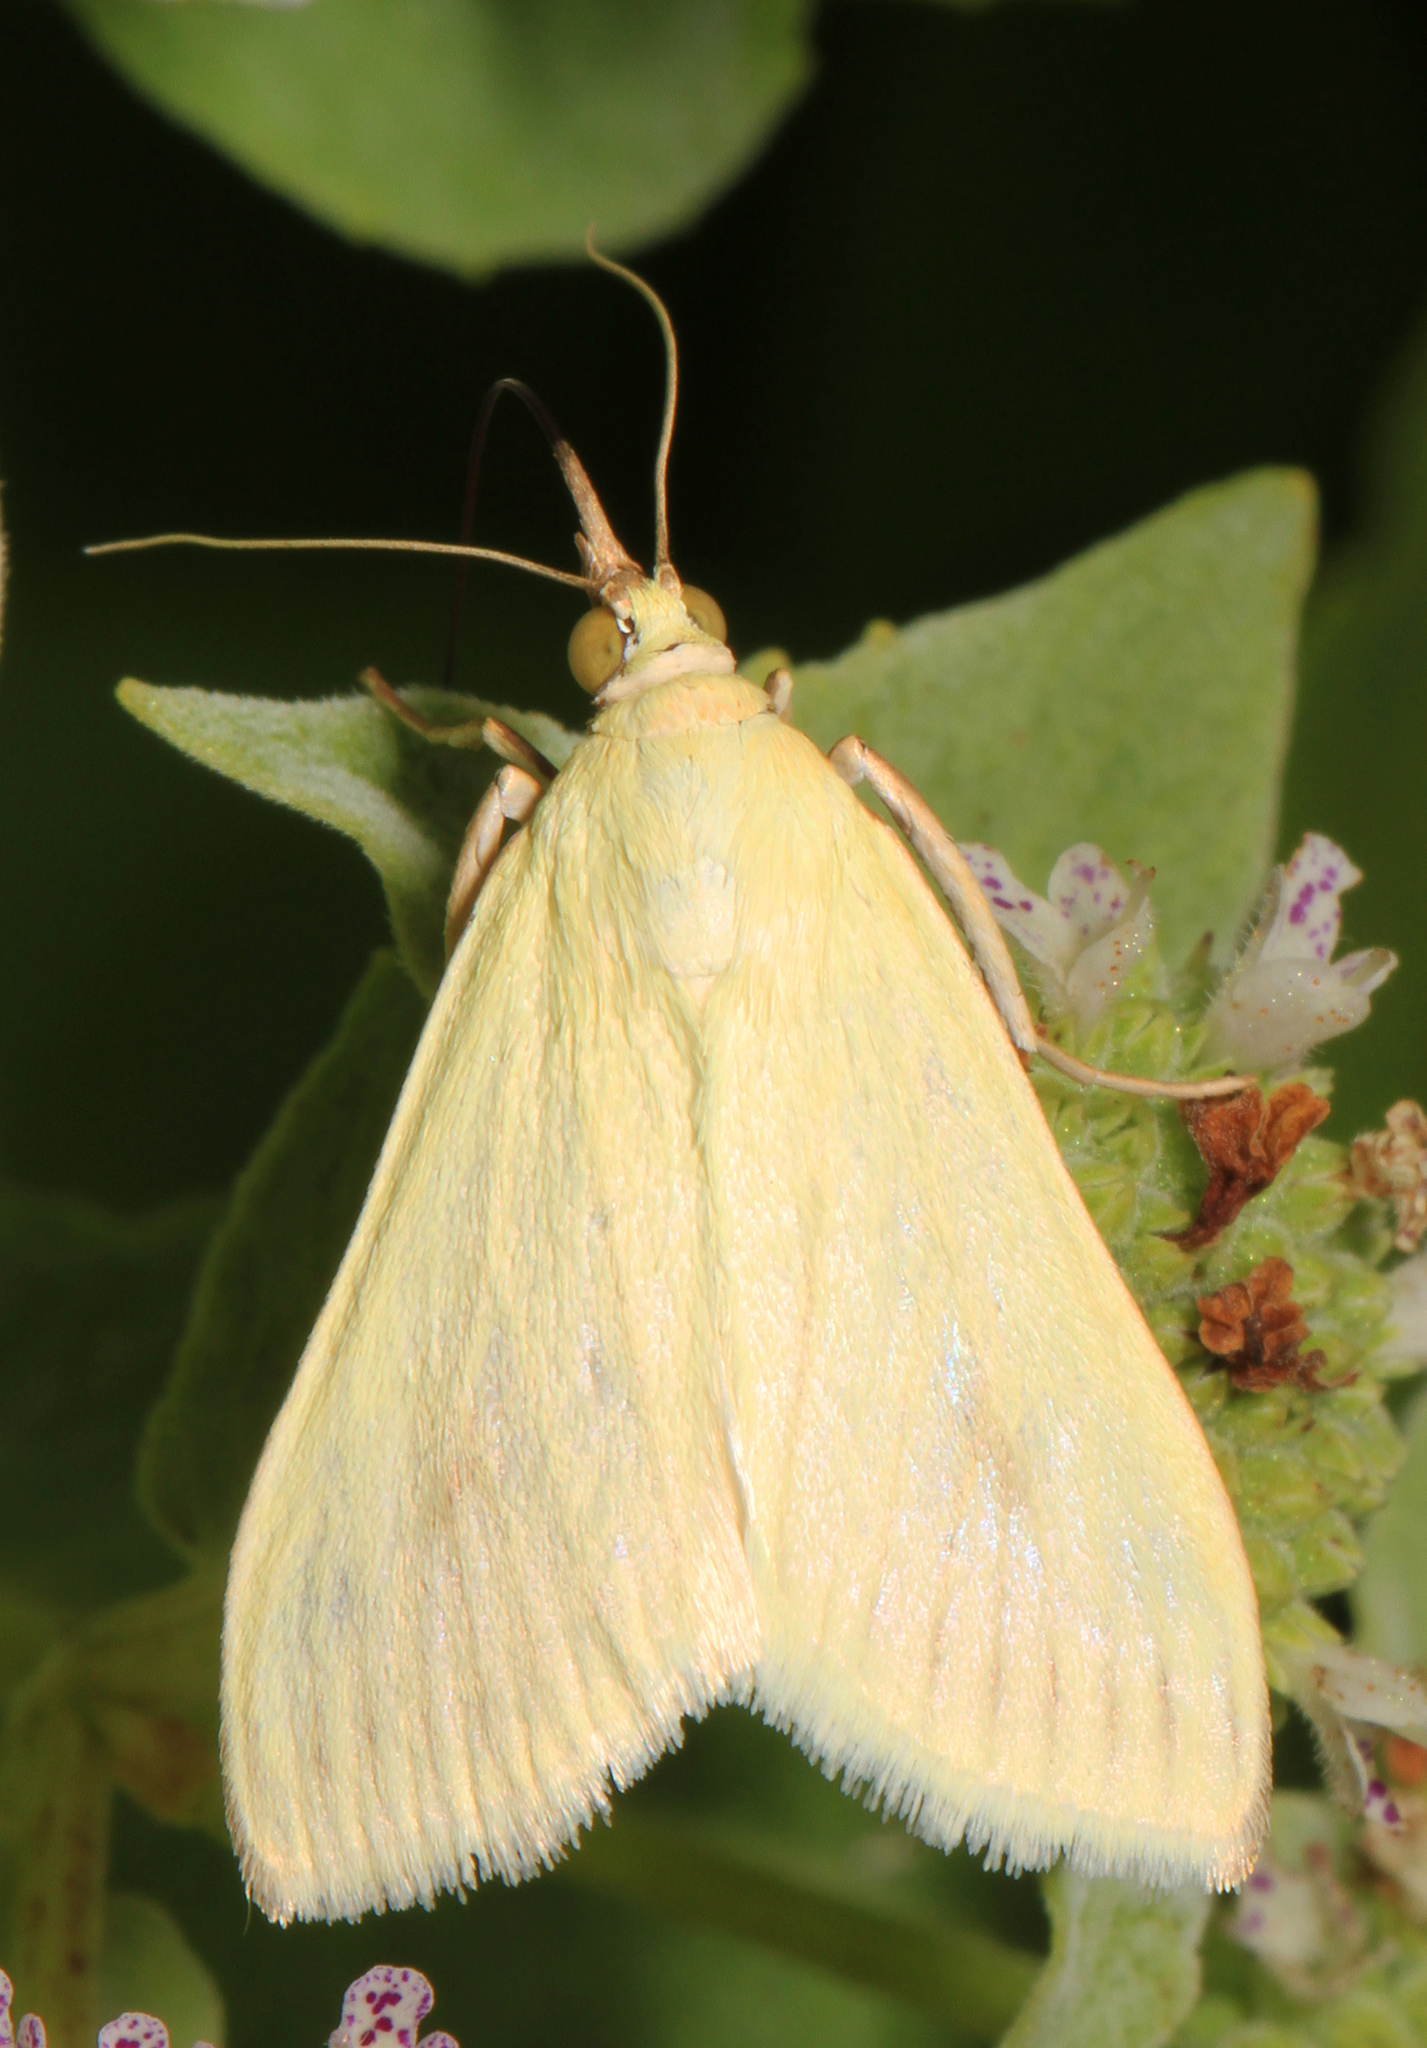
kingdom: Animalia
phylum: Arthropoda
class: Insecta
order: Lepidoptera
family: Crambidae
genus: Sitochroa
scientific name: Sitochroa palealis
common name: Greenish-yellow sitochroa moth
